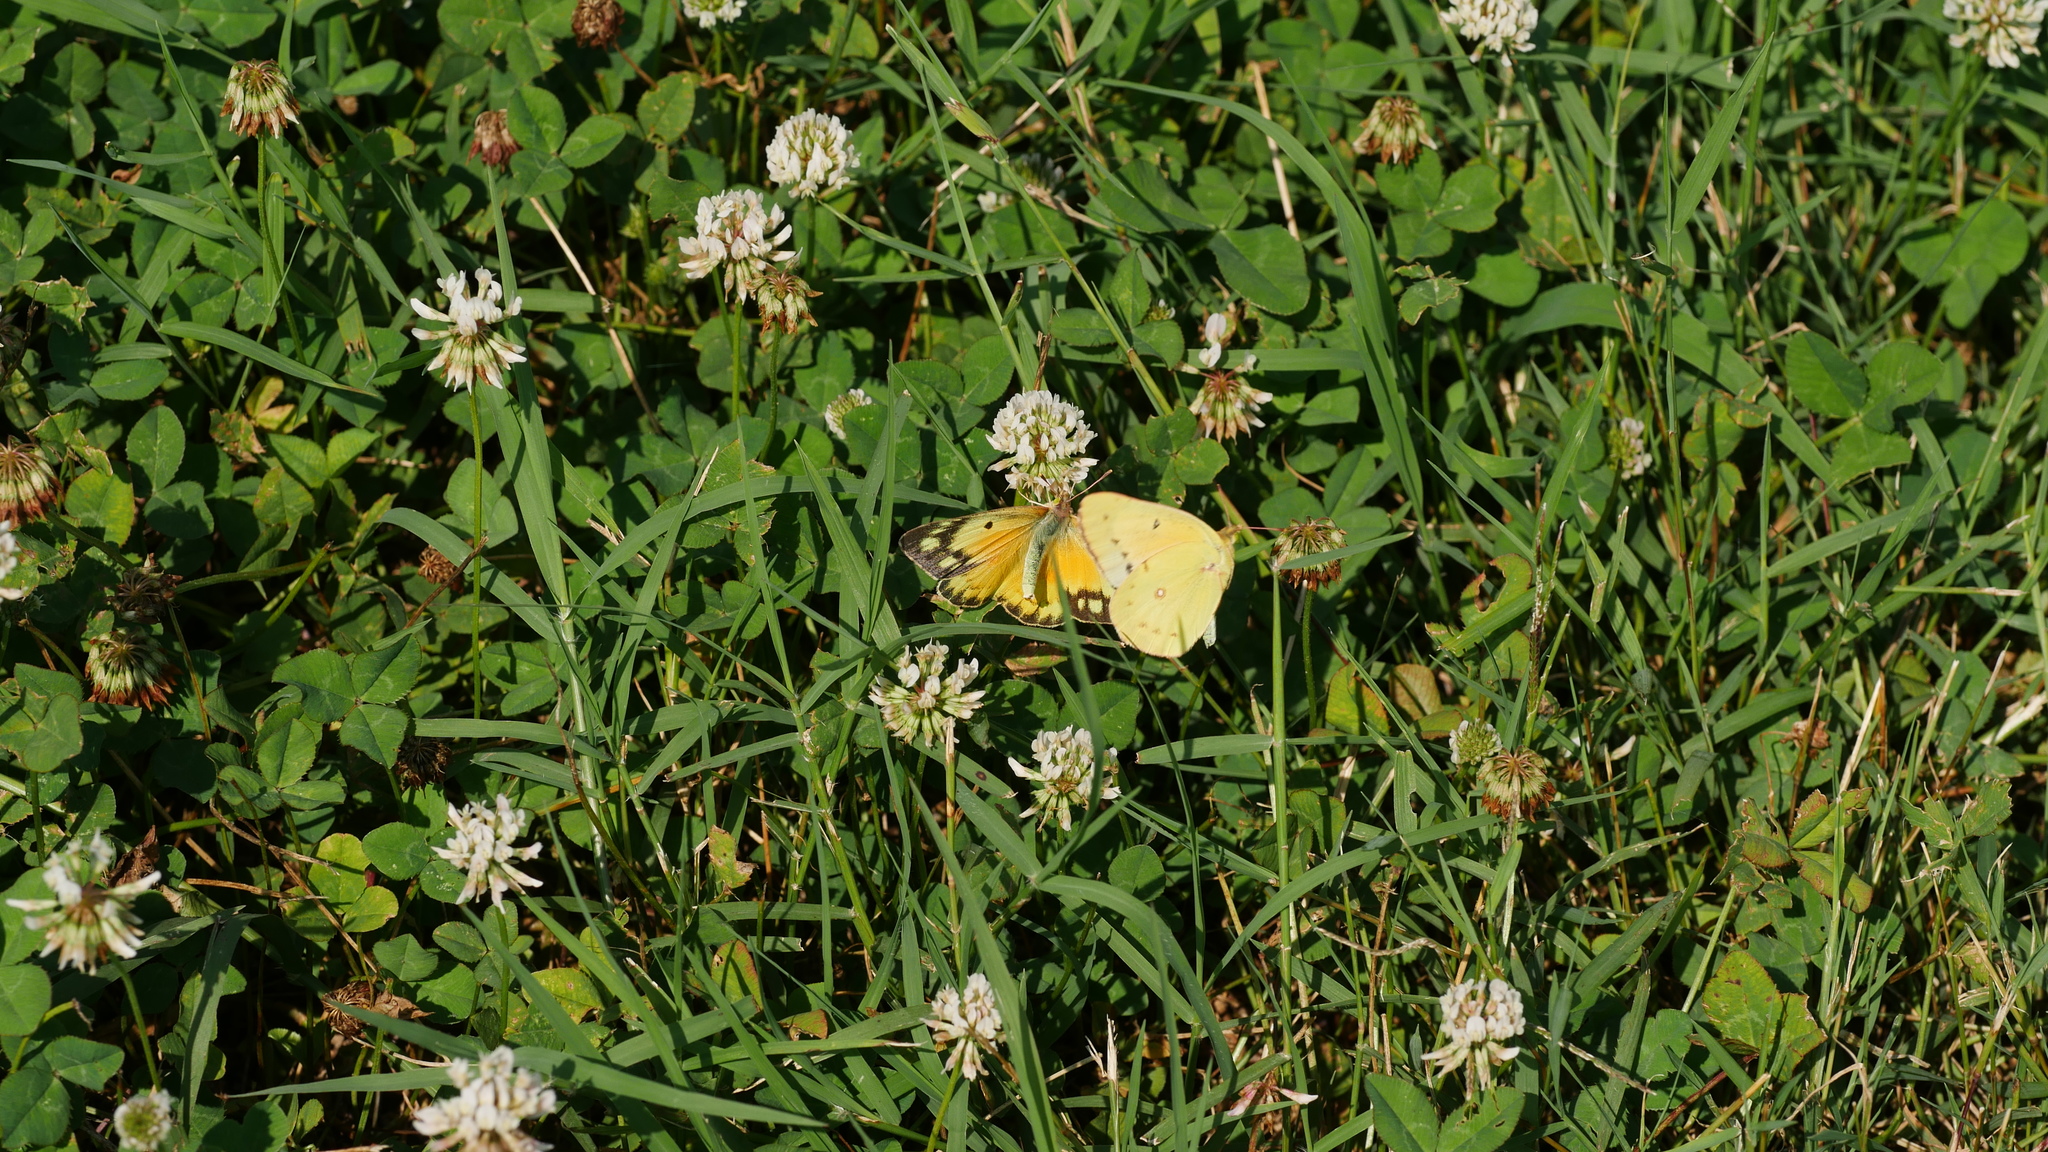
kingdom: Animalia
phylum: Arthropoda
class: Insecta
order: Lepidoptera
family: Pieridae
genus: Colias
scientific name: Colias eurytheme
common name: Alfalfa butterfly
